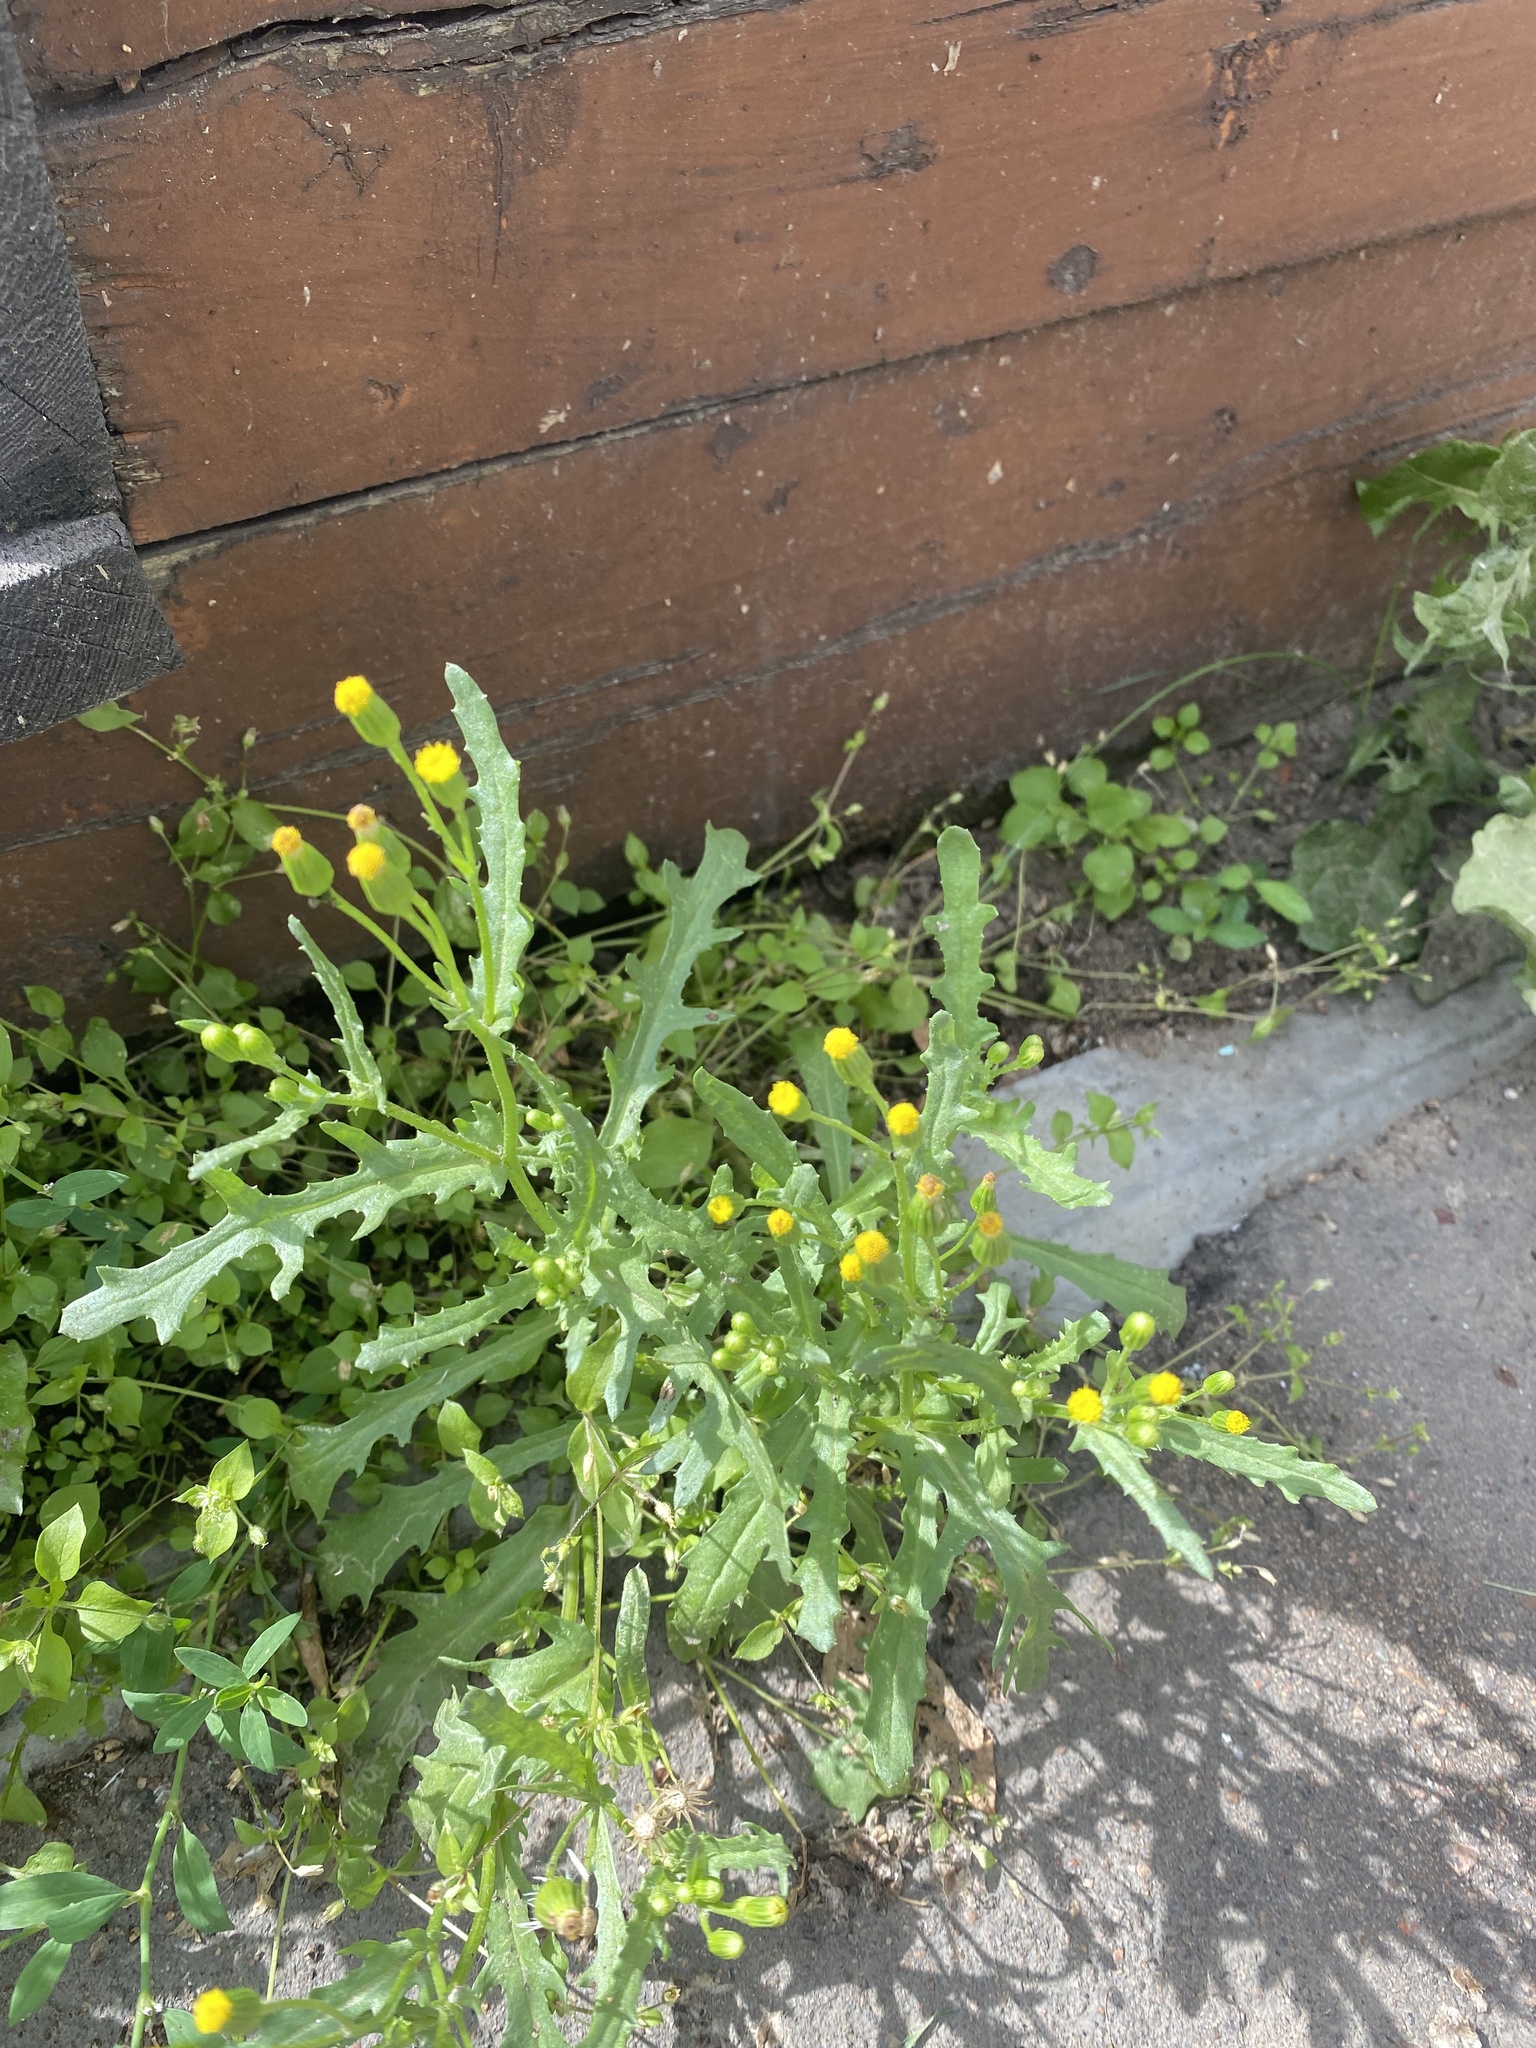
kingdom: Plantae
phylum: Tracheophyta
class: Magnoliopsida
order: Asterales
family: Asteraceae
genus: Senecio
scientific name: Senecio dubitabilis
